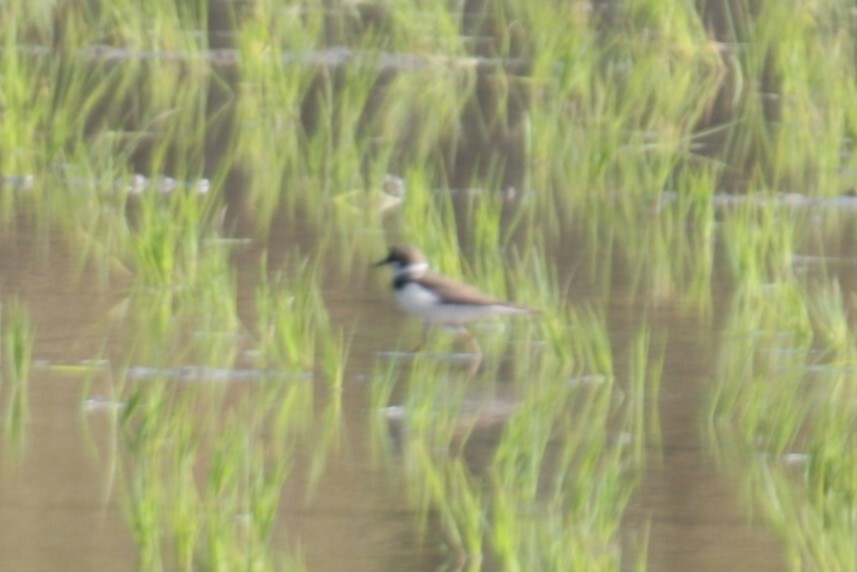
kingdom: Animalia
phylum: Chordata
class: Aves
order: Charadriiformes
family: Charadriidae
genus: Charadrius
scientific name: Charadrius dubius
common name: Little ringed plover
